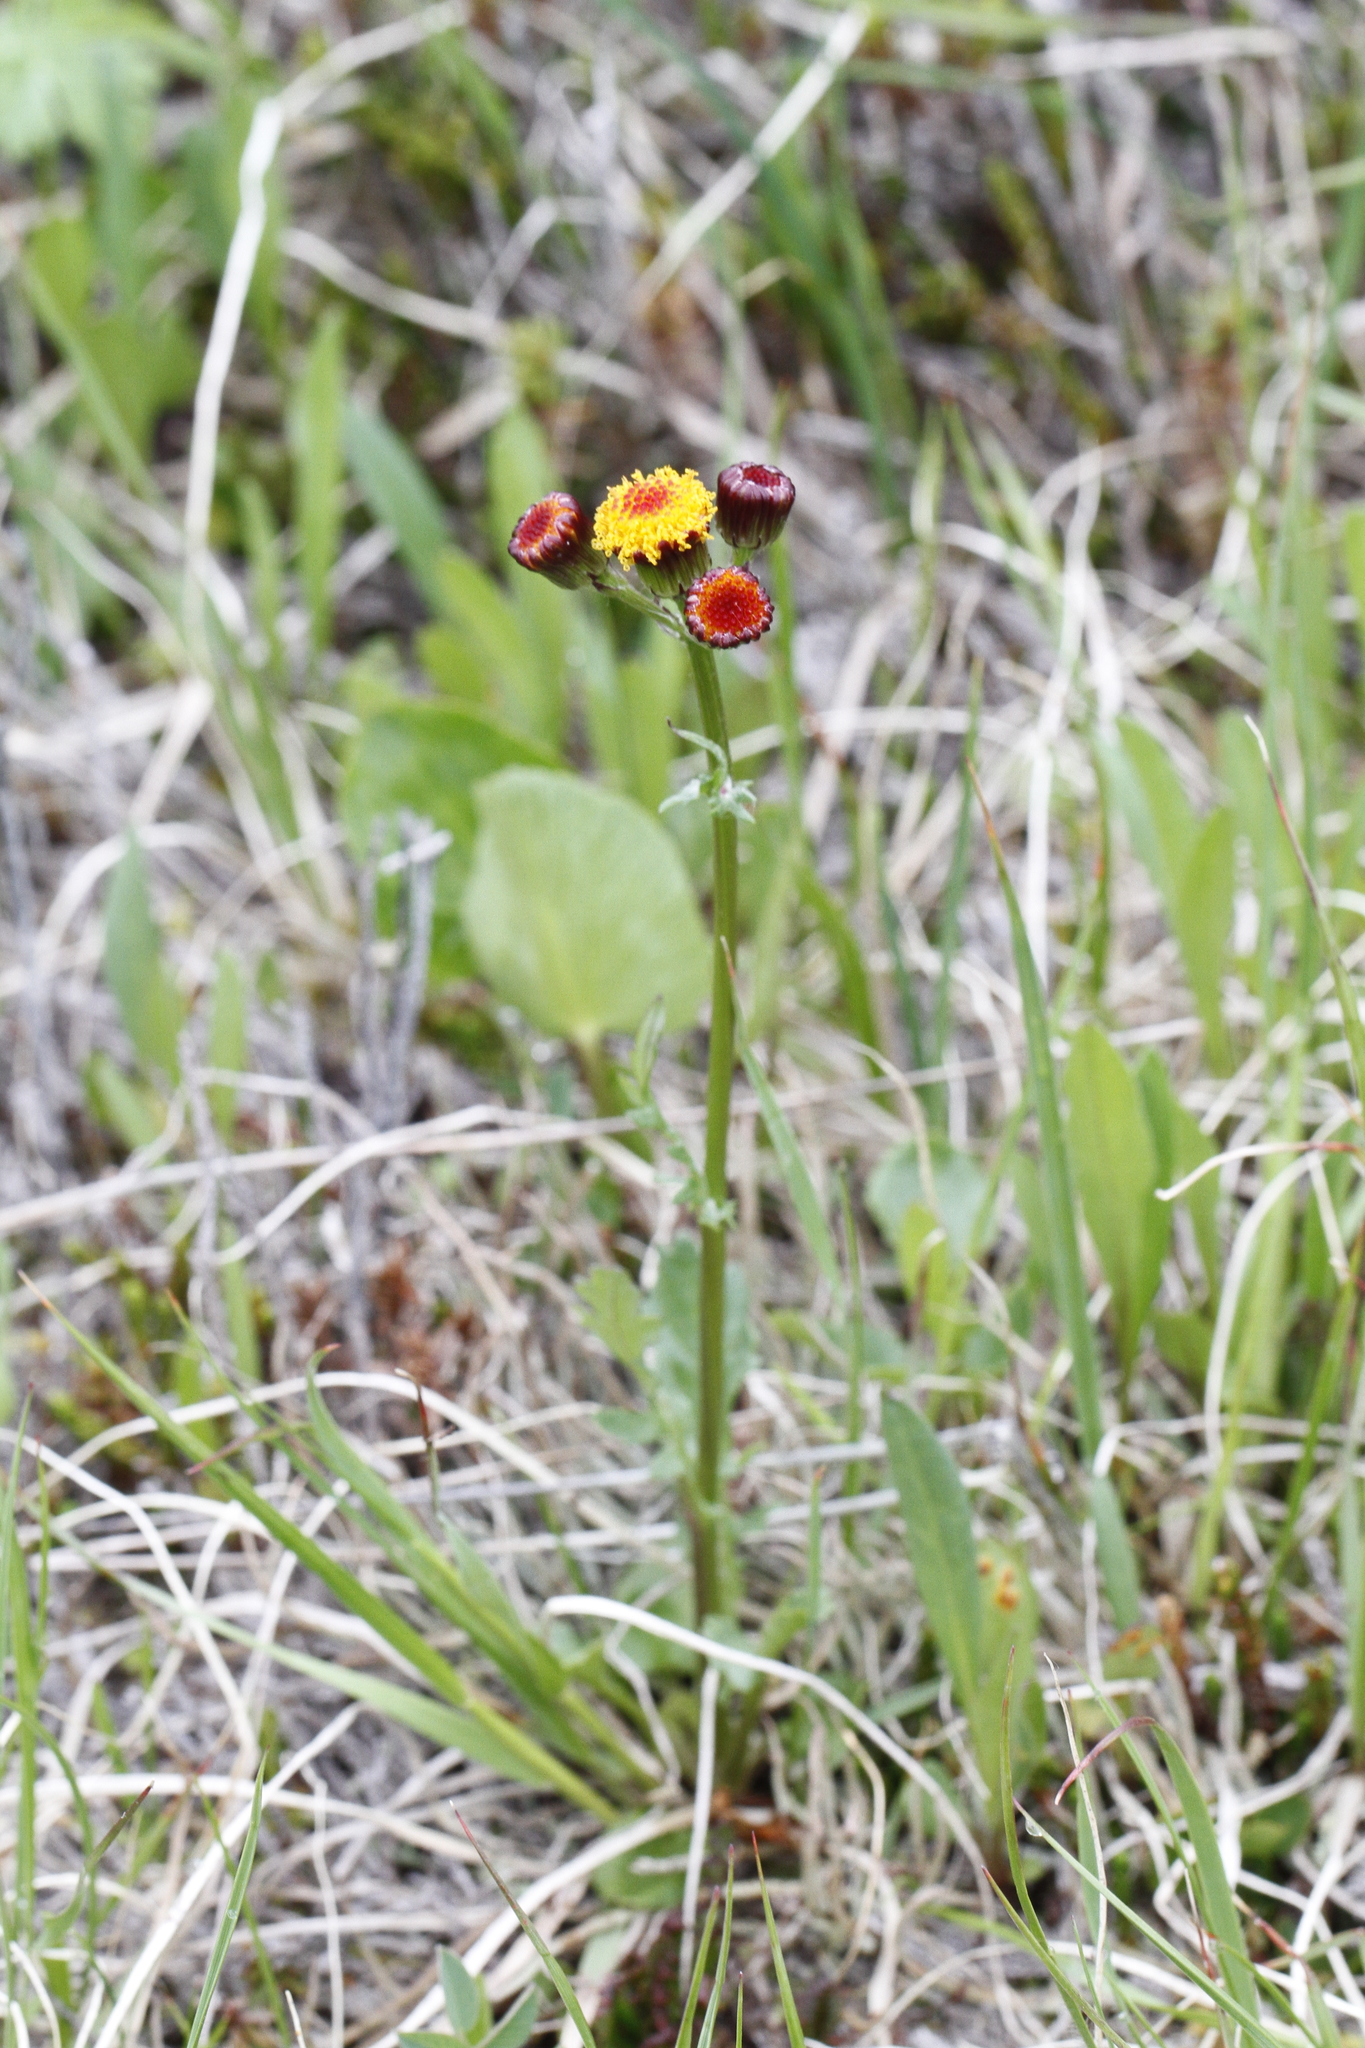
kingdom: Plantae
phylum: Tracheophyta
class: Magnoliopsida
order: Asterales
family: Asteraceae
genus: Packera
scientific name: Packera pauciflora
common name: Alpine groundsel
